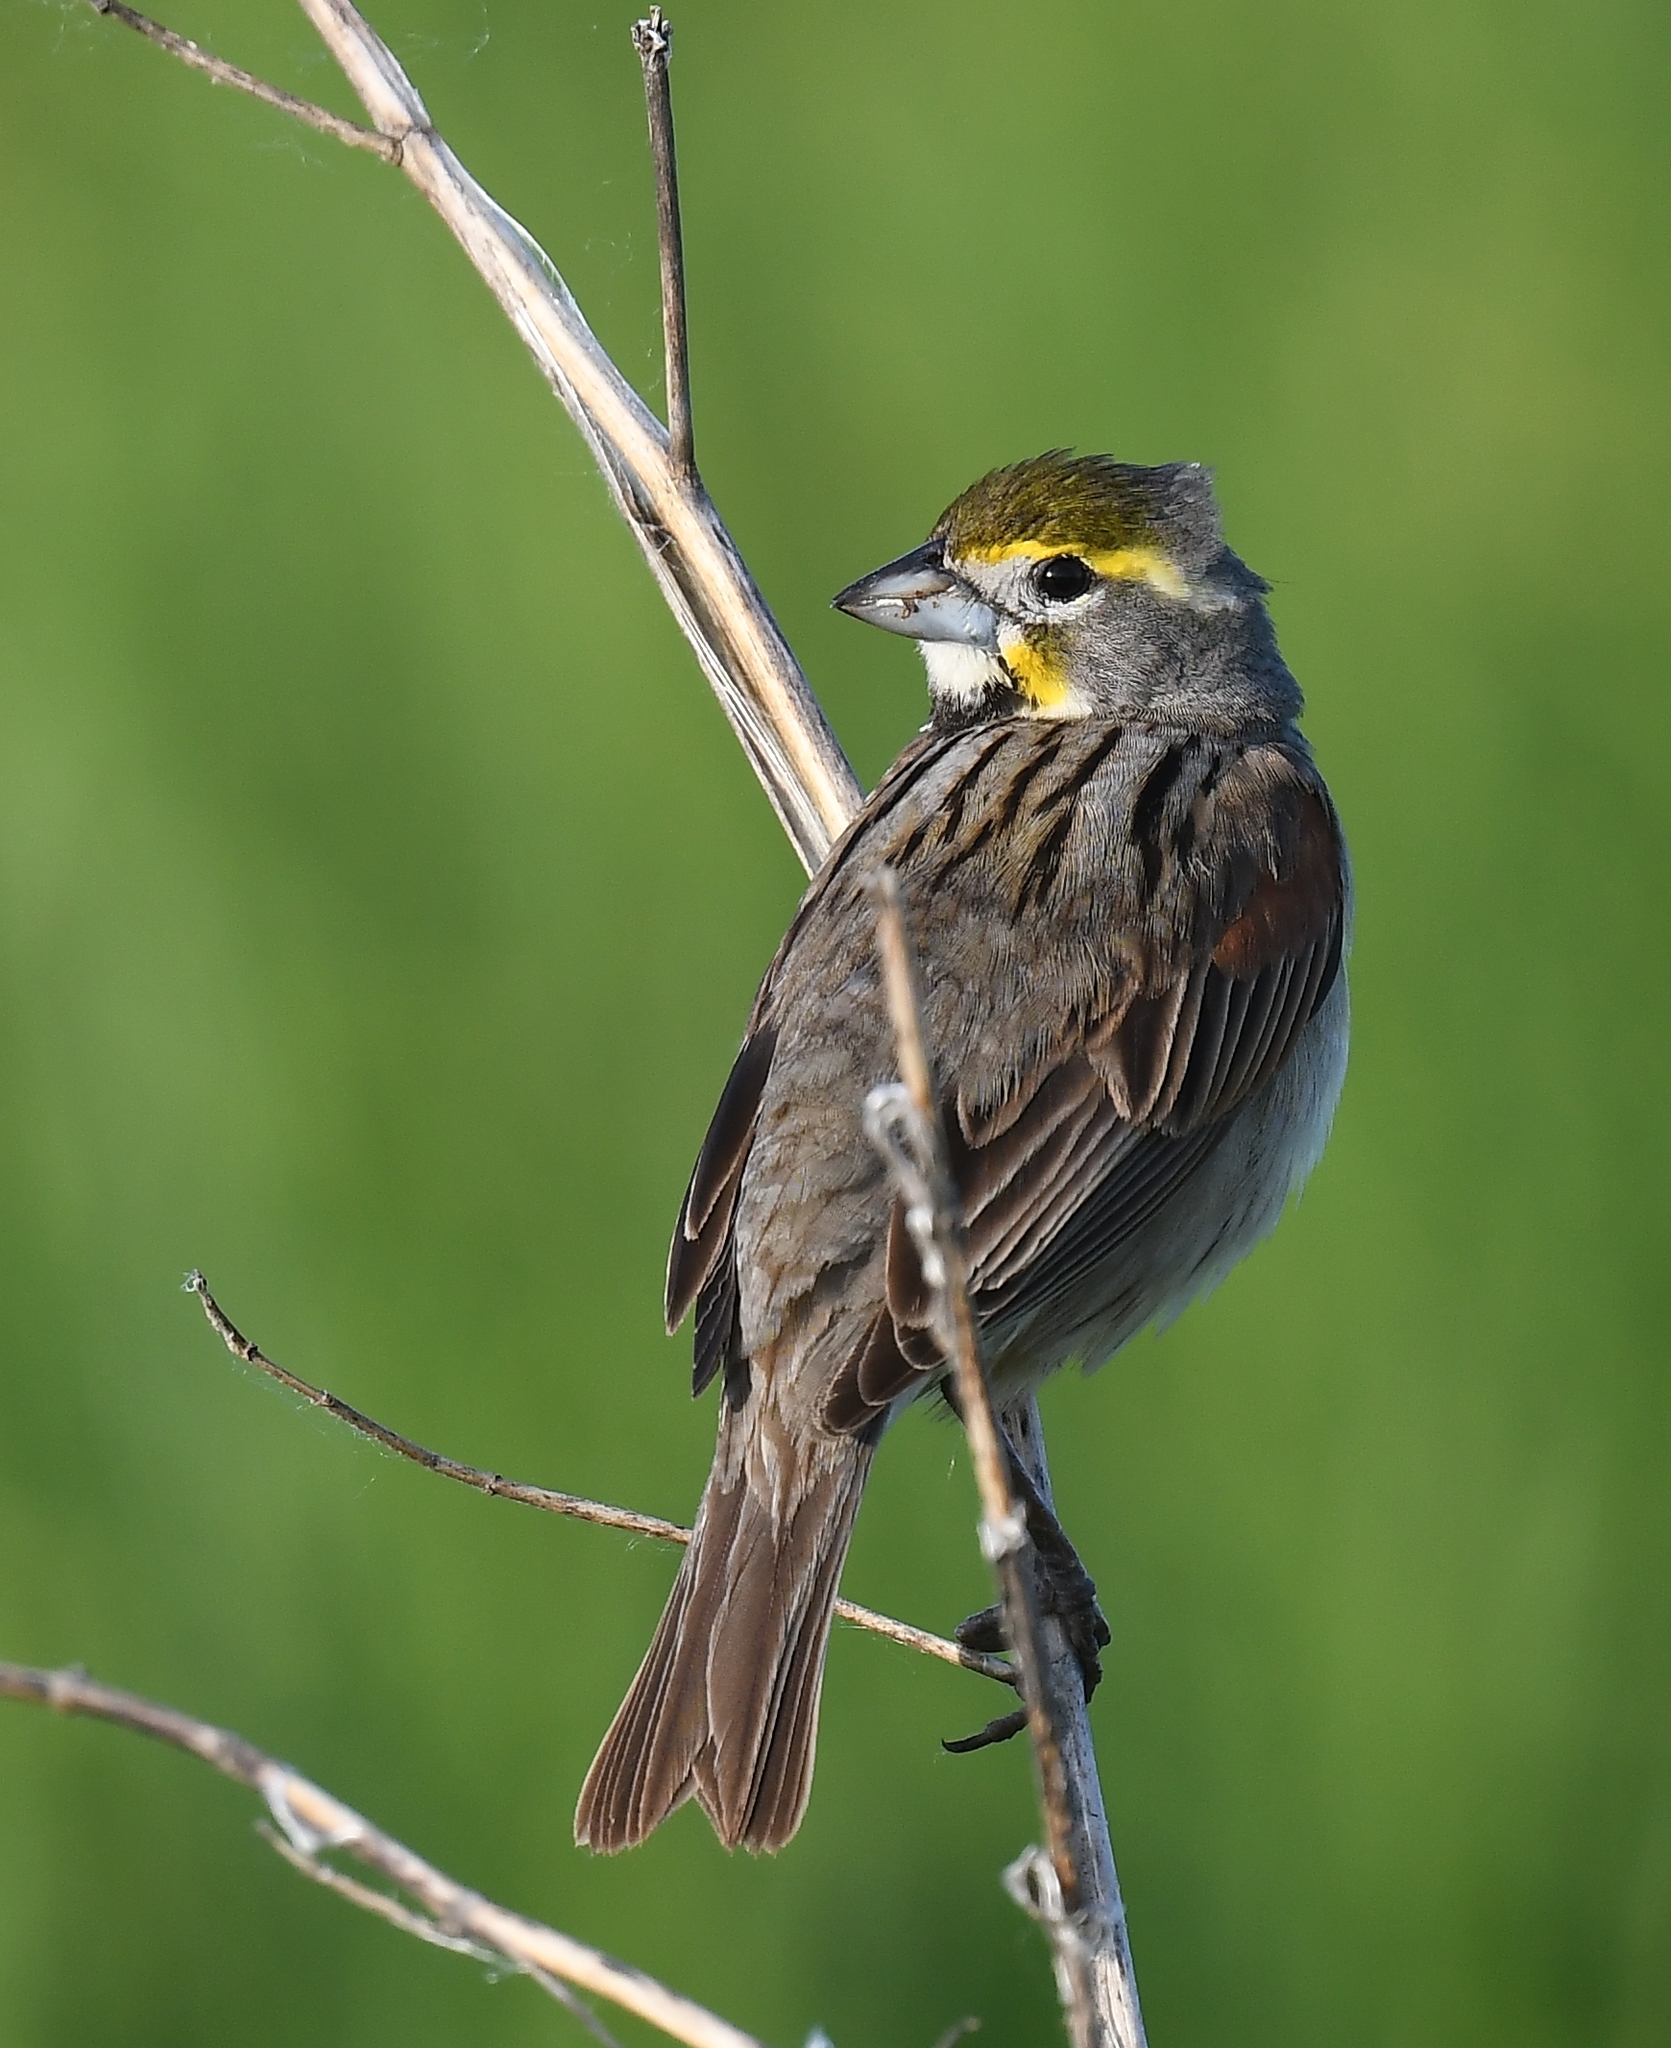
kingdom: Animalia
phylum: Chordata
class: Aves
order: Passeriformes
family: Cardinalidae
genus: Spiza
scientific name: Spiza americana
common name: Dickcissel
